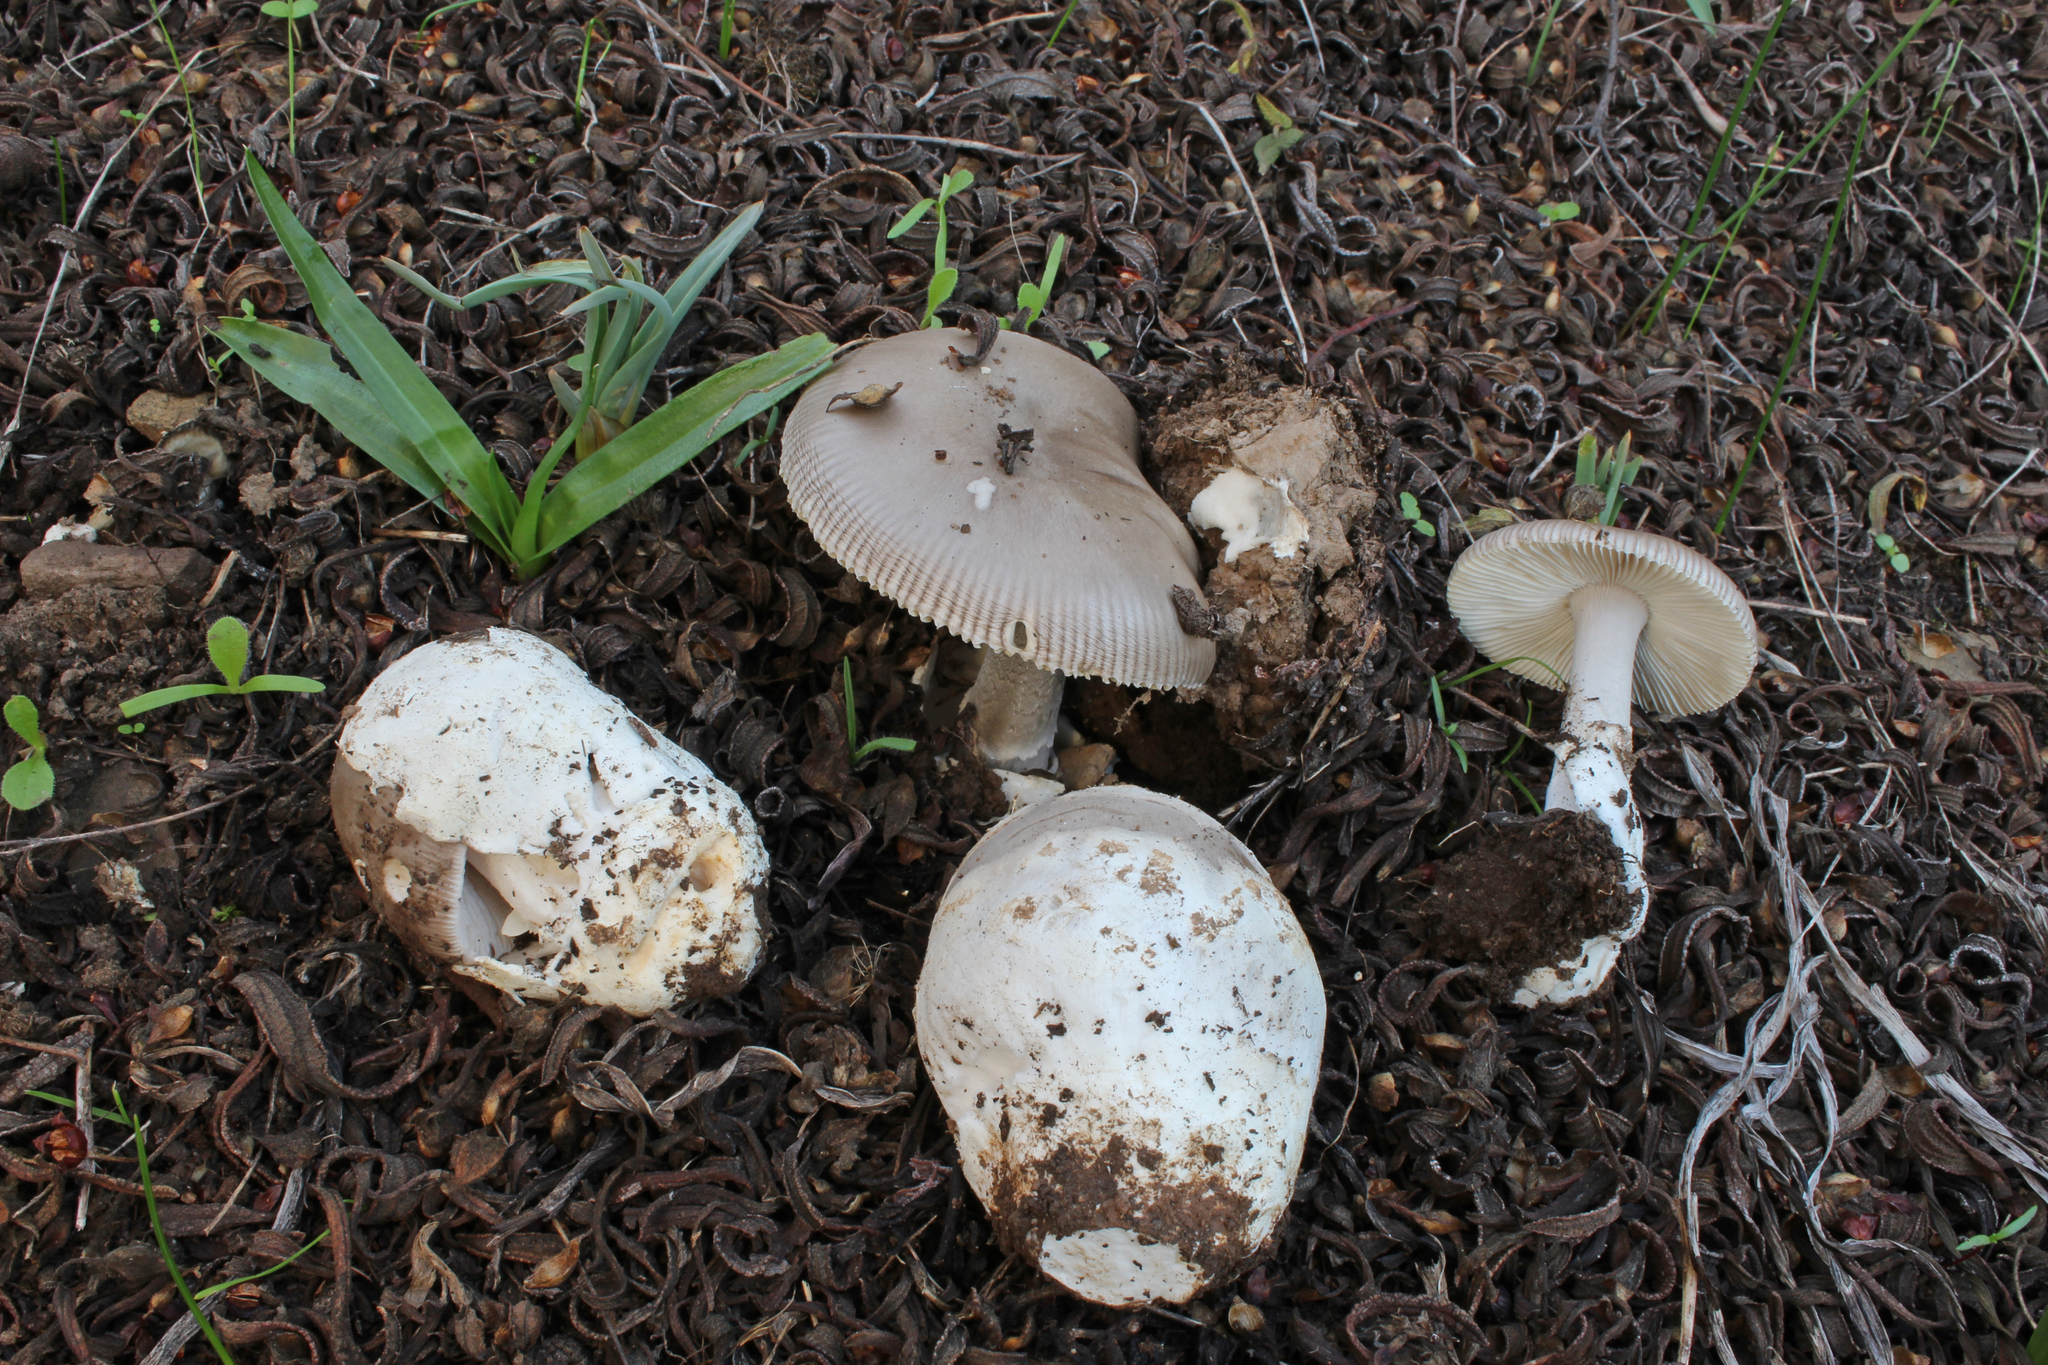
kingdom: Fungi
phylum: Basidiomycota
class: Agaricomycetes
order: Agaricales
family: Amanitaceae
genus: Amanita
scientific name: Amanita cistetorum
